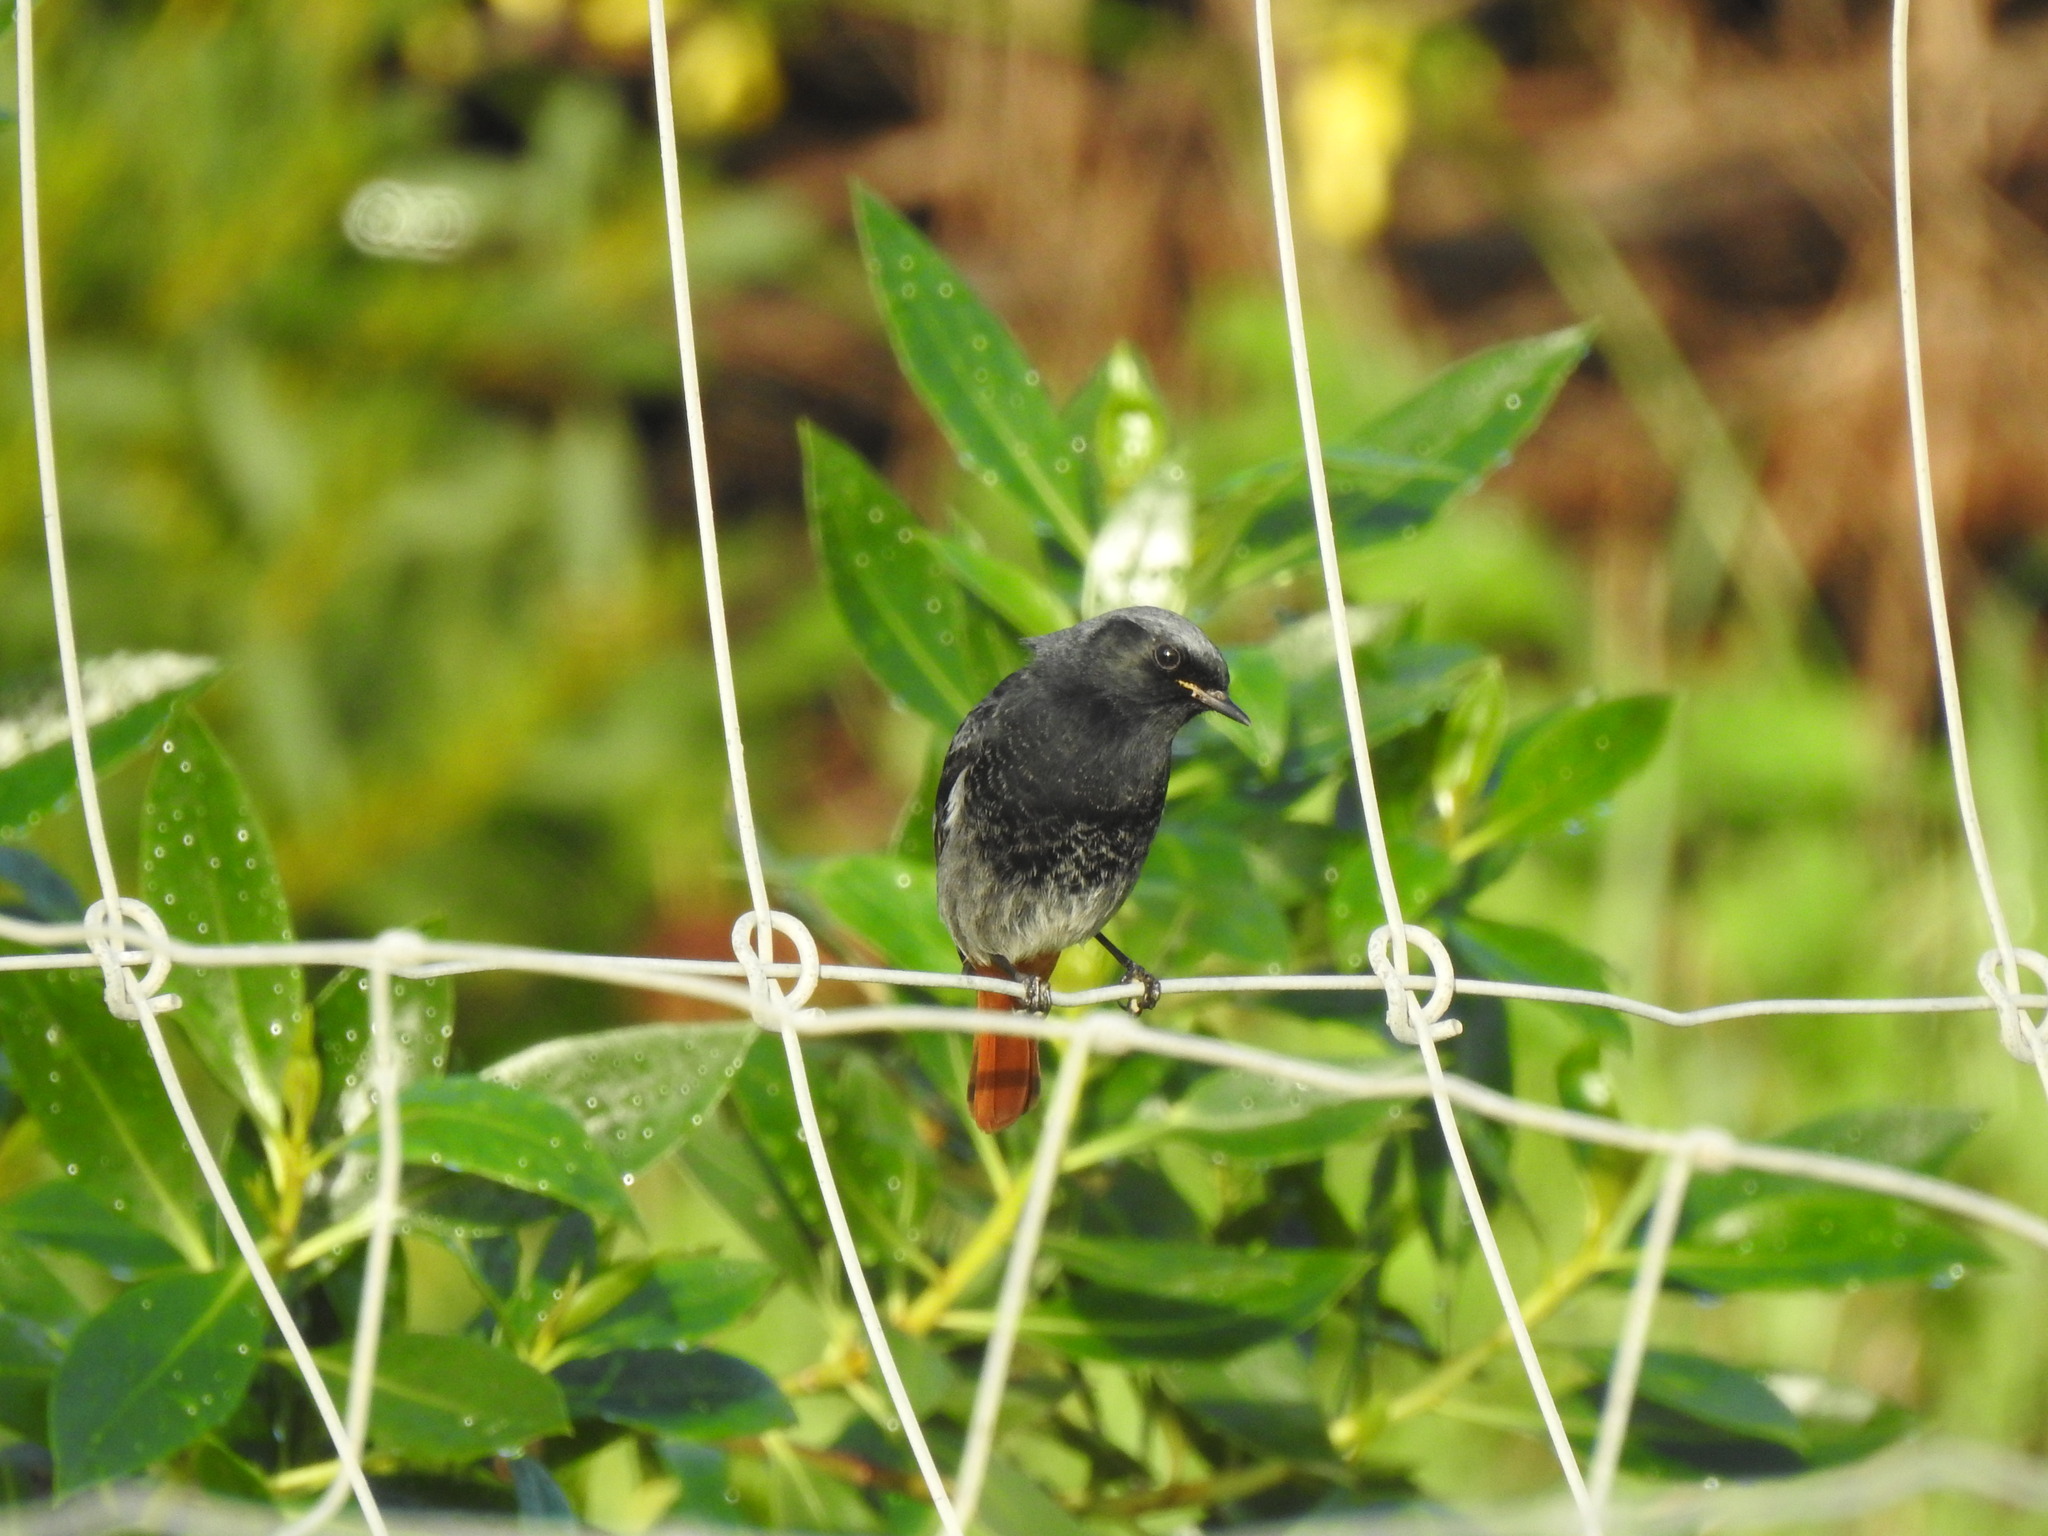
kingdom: Animalia
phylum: Chordata
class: Aves
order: Passeriformes
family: Muscicapidae
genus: Phoenicurus
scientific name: Phoenicurus ochruros
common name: Black redstart
